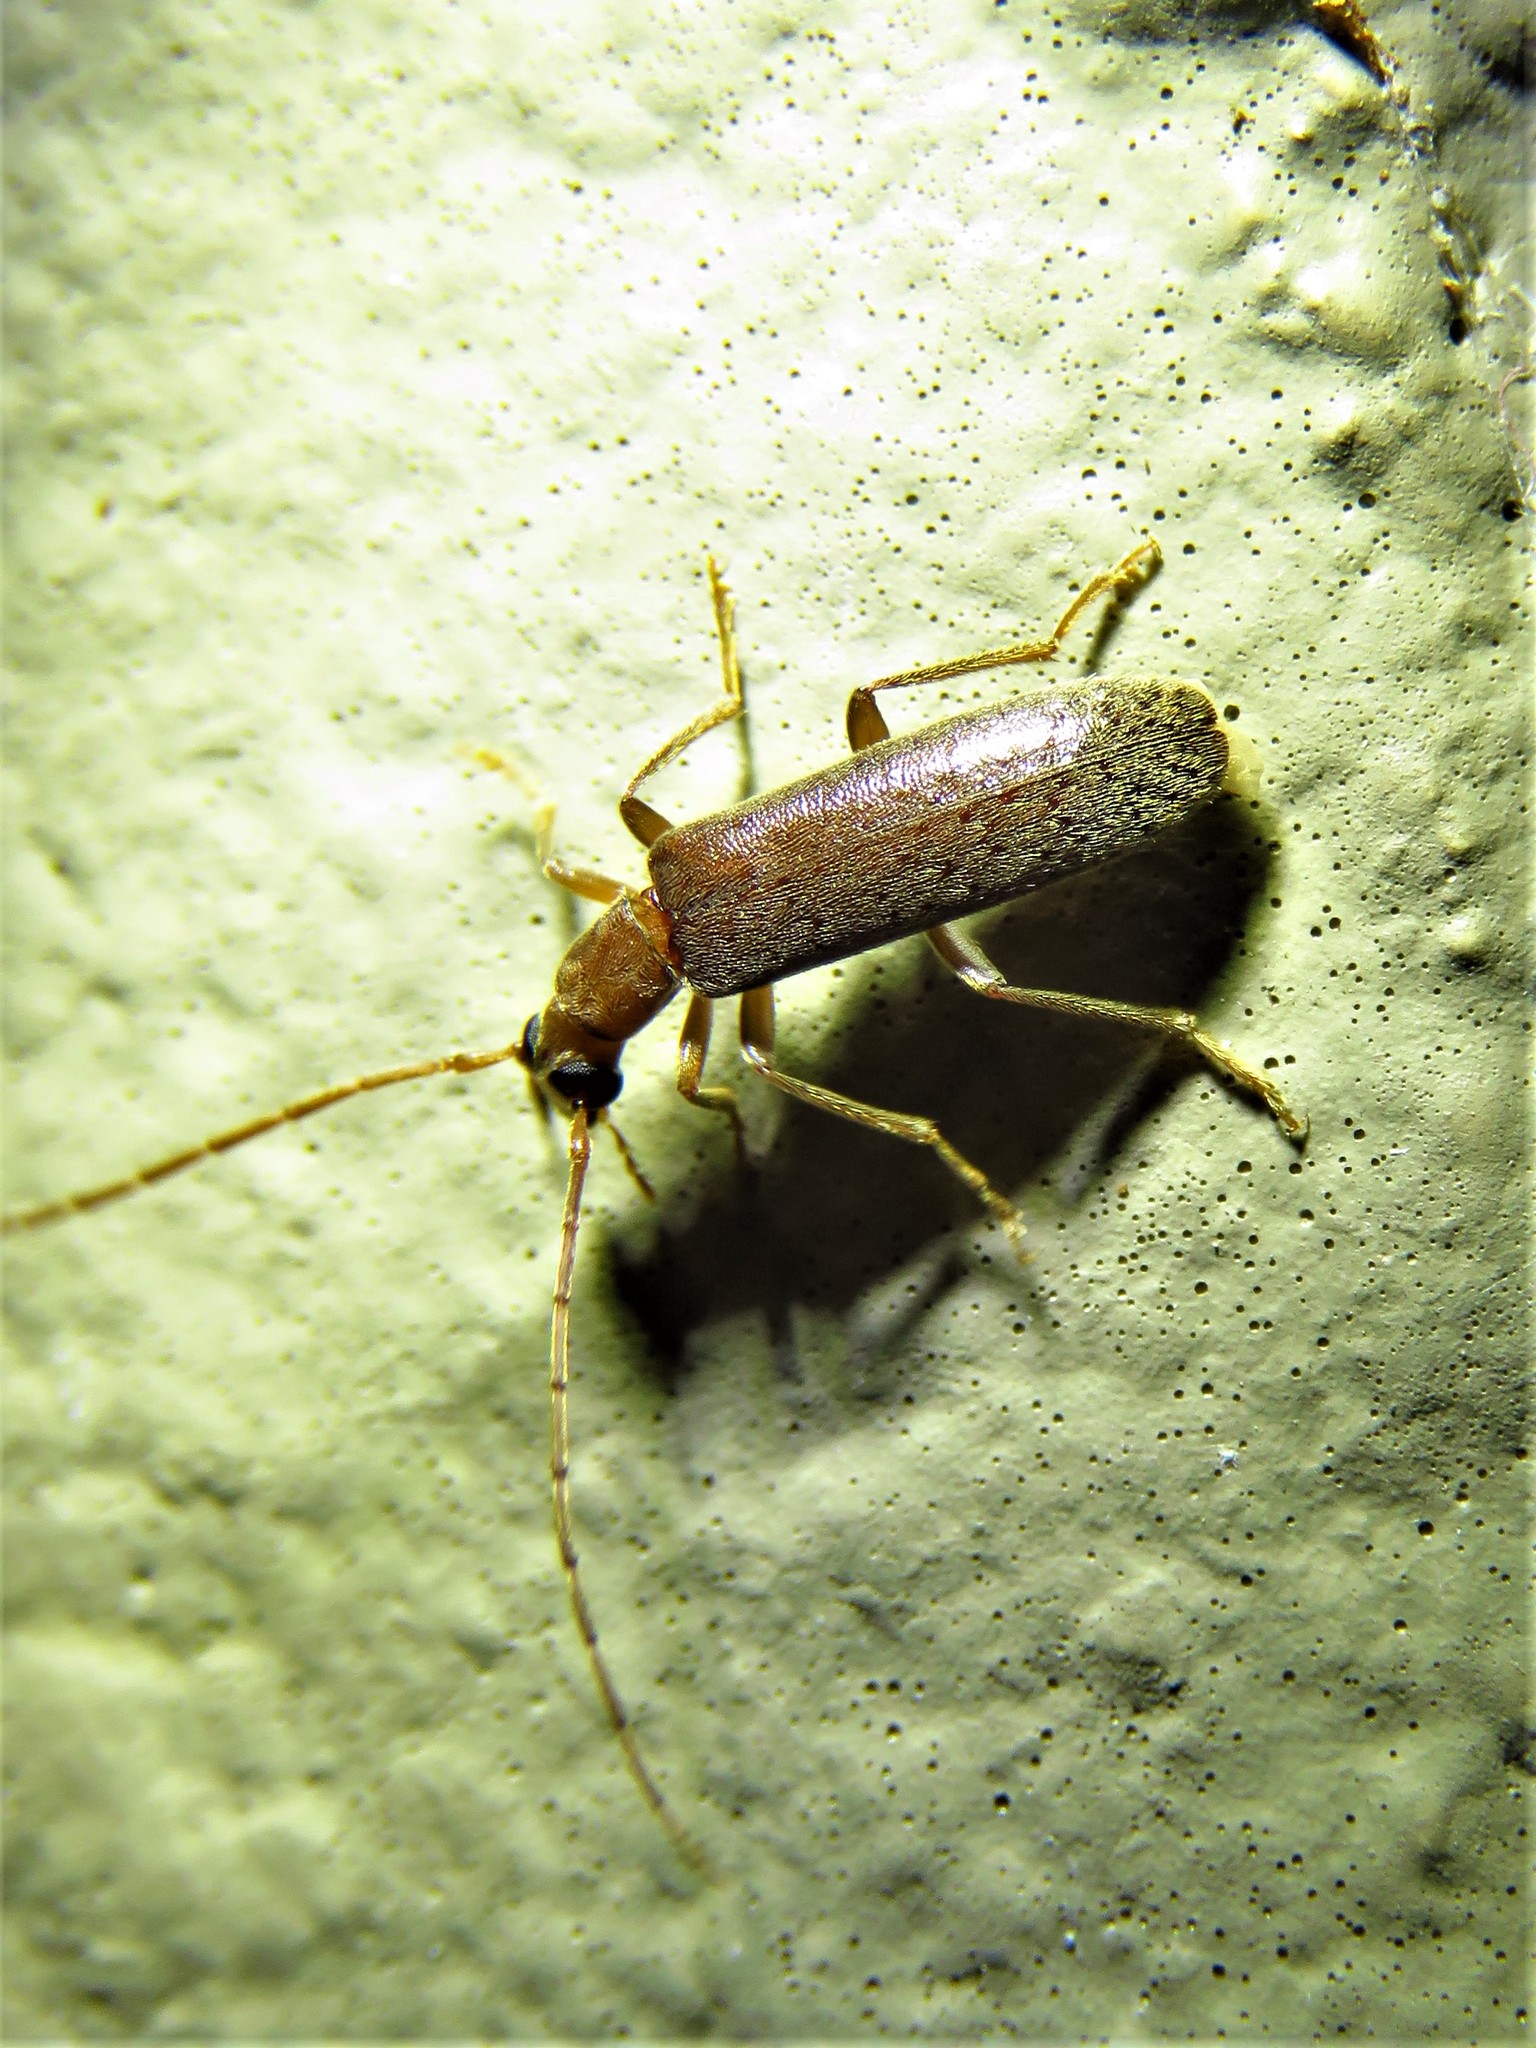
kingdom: Animalia
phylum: Arthropoda
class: Insecta
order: Coleoptera
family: Oedemeridae
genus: Sparedrus
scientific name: Sparedrus aspersus
